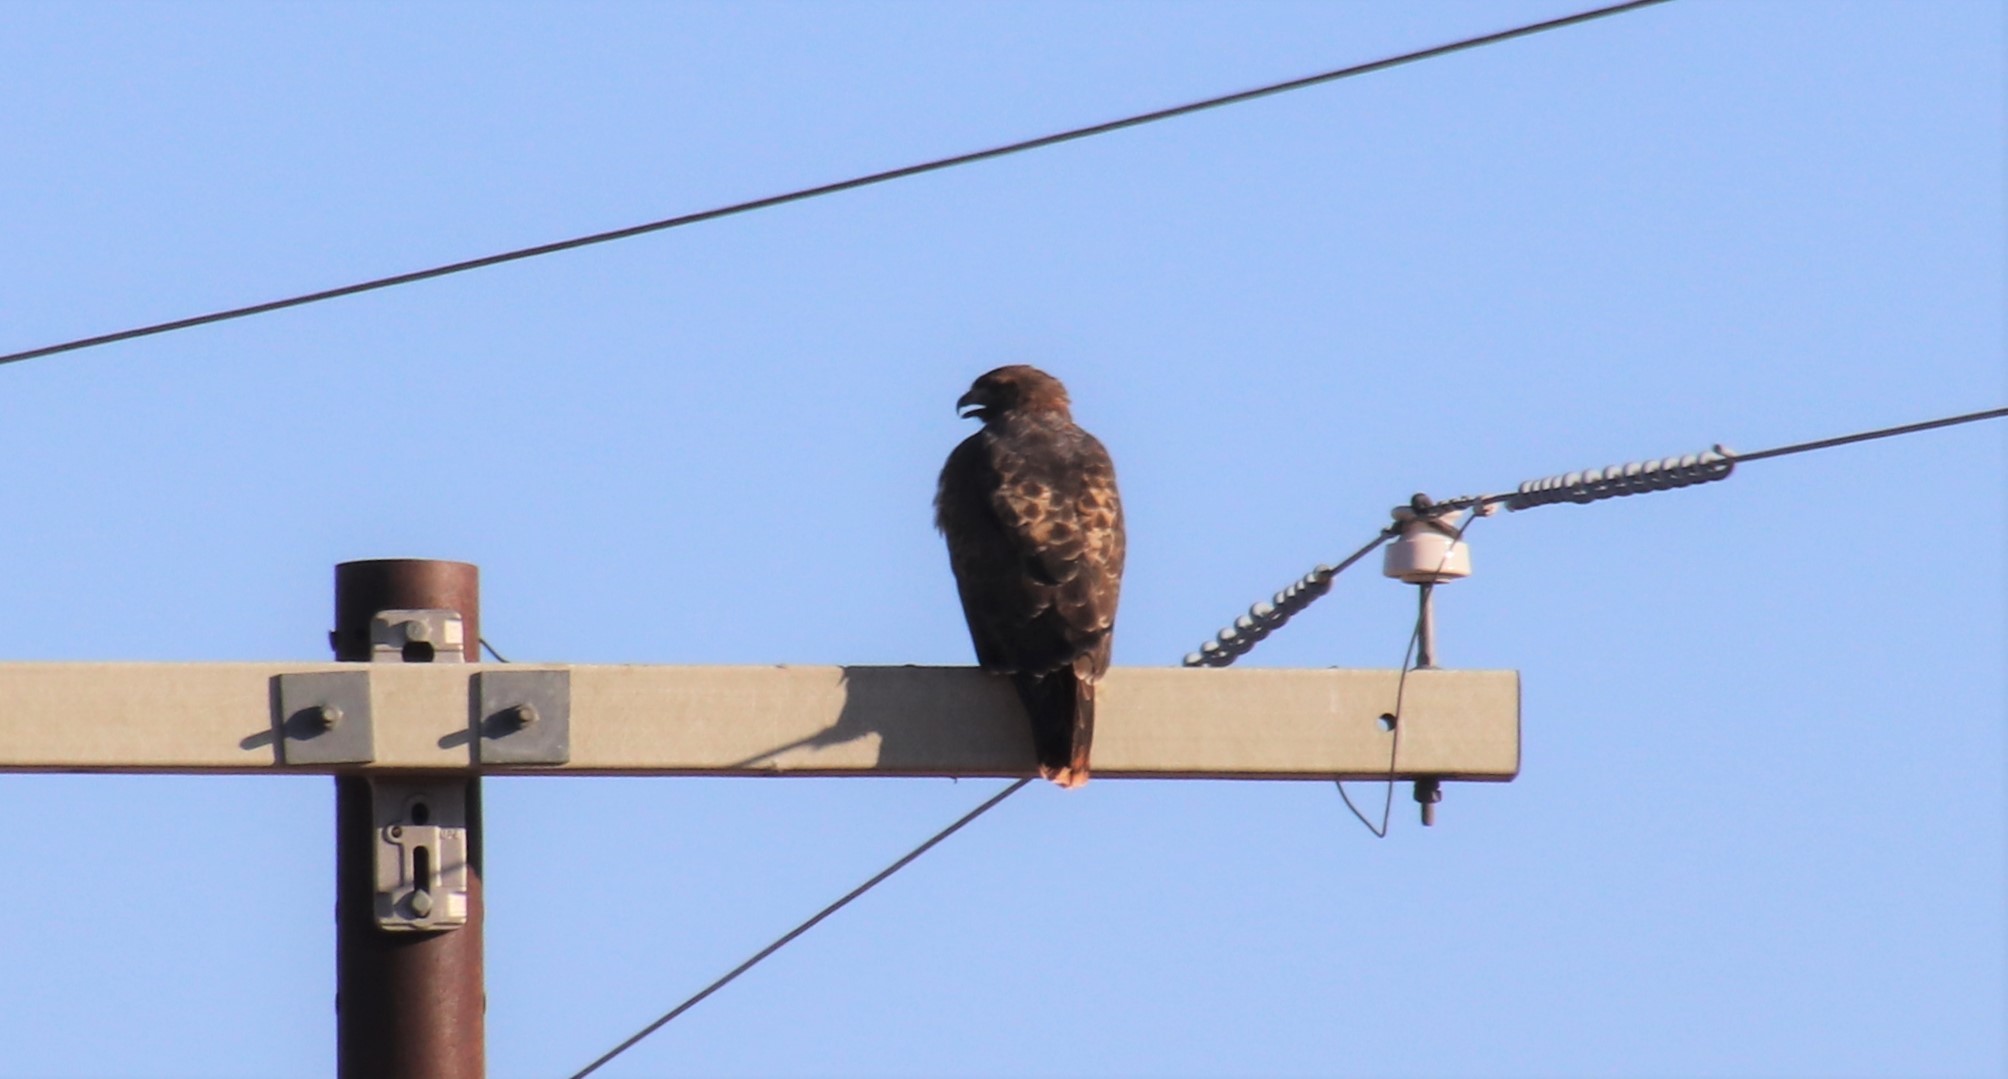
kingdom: Animalia
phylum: Chordata
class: Aves
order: Accipitriformes
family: Accipitridae
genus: Buteo
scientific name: Buteo jamaicensis
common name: Red-tailed hawk
